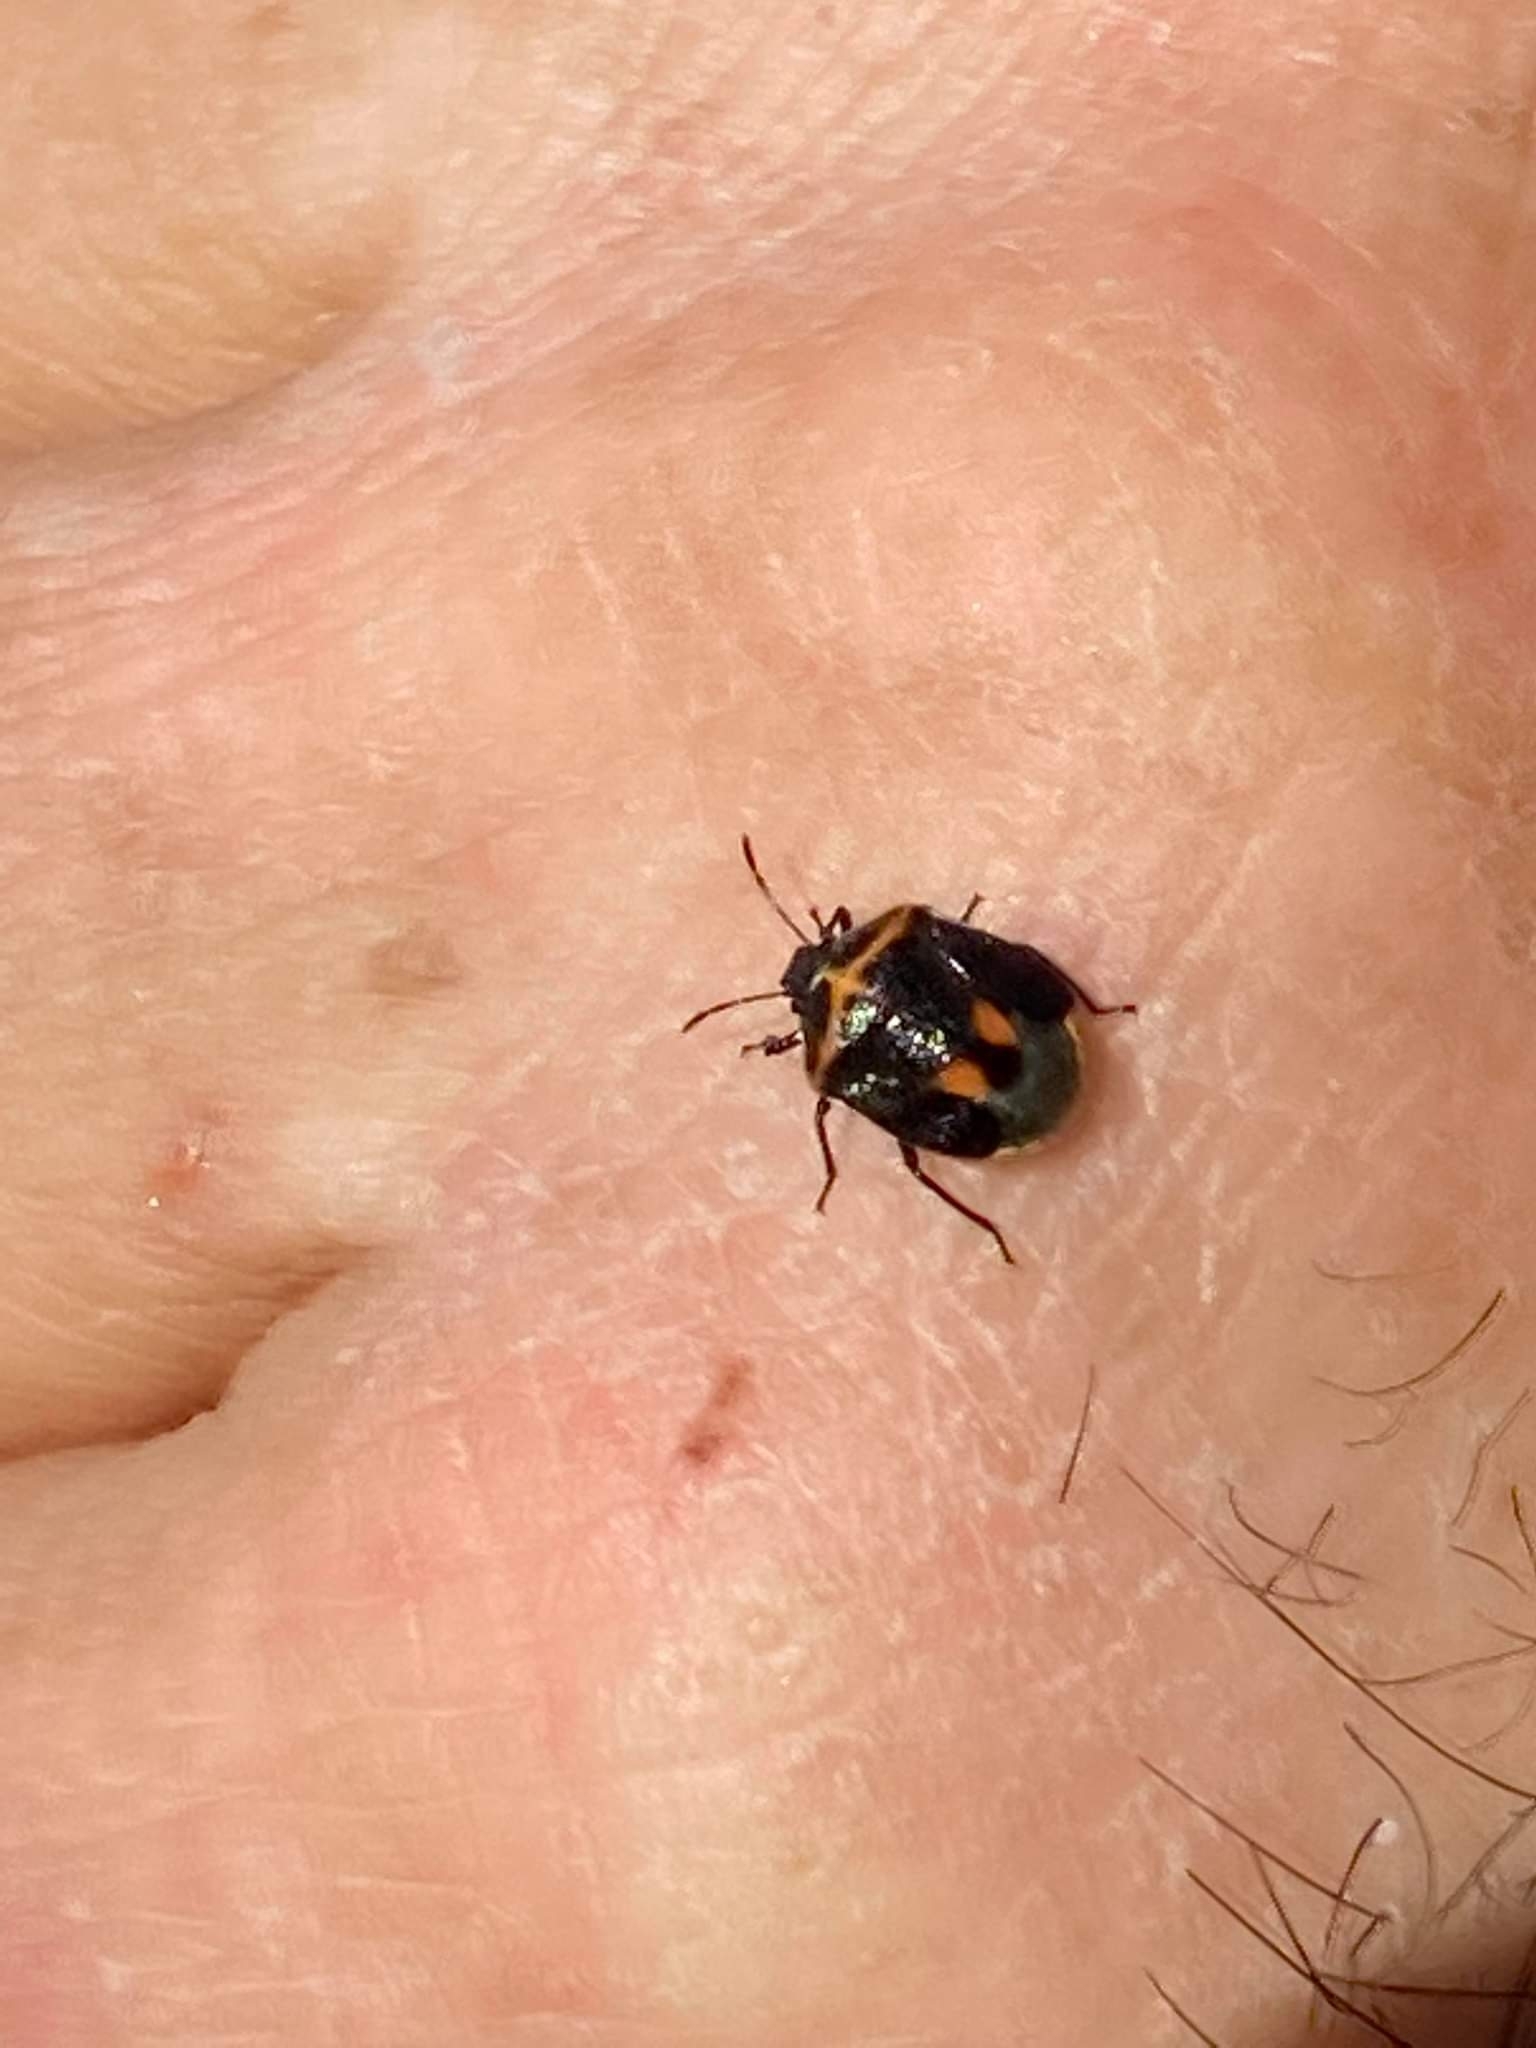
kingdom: Animalia
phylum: Arthropoda
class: Insecta
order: Hemiptera
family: Pentatomidae
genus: Cosmopepla
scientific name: Cosmopepla lintneriana
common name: Twice-stabbed stink bug
